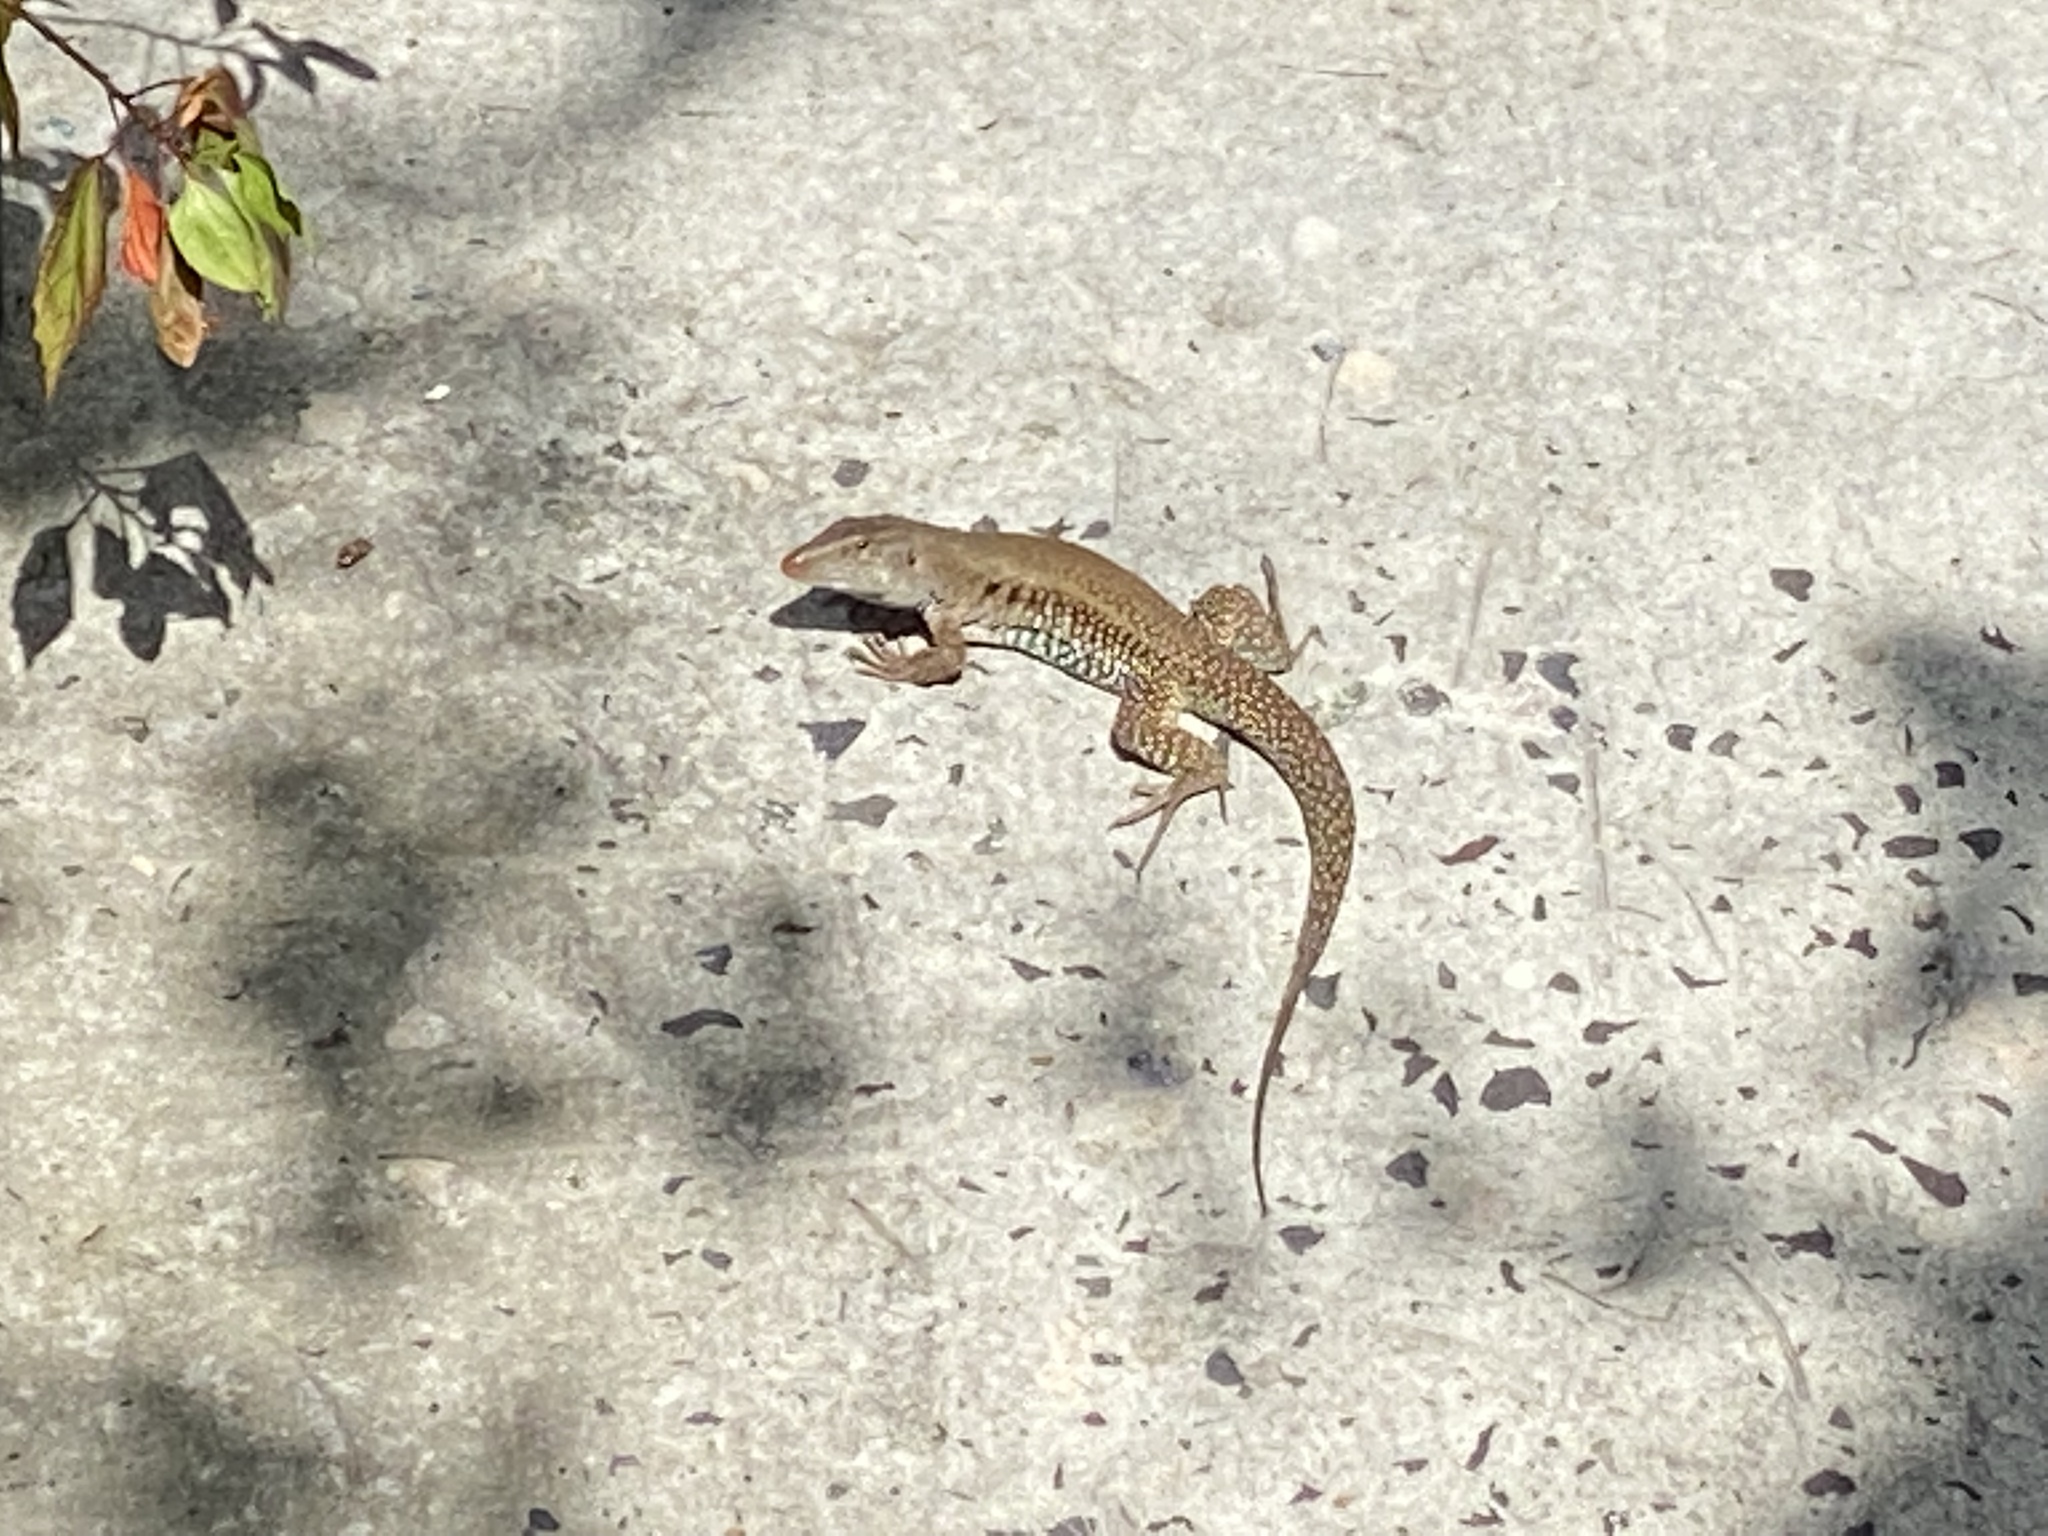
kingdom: Animalia
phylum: Chordata
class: Squamata
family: Teiidae
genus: Pholidoscelis
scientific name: Pholidoscelis exsul
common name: Common puerto rican ameiva
